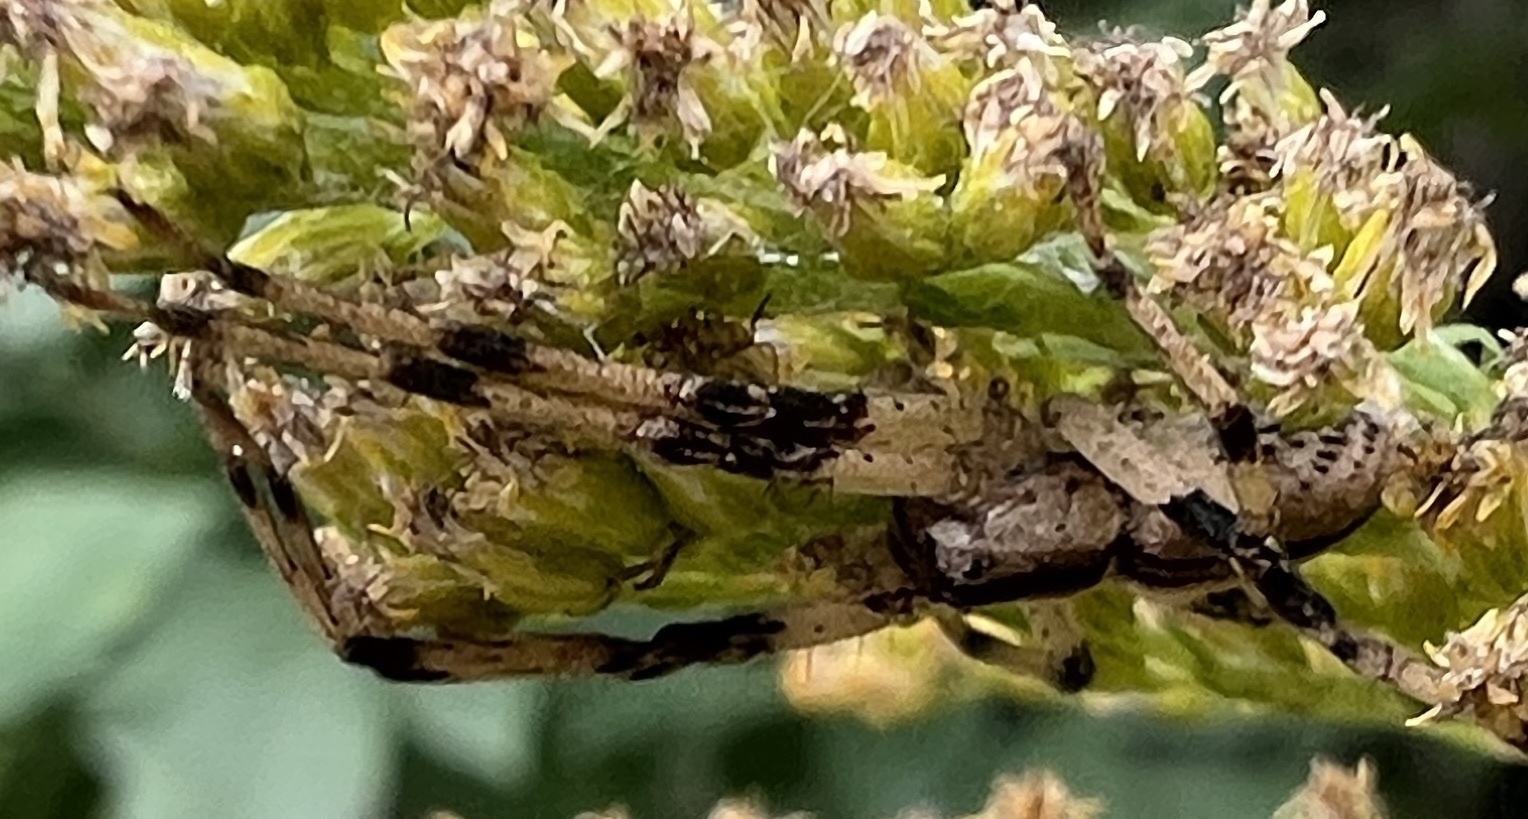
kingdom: Animalia
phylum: Arthropoda
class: Arachnida
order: Araneae
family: Pisauridae
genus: Pisaurina
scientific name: Pisaurina mira
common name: American nursery web spider
